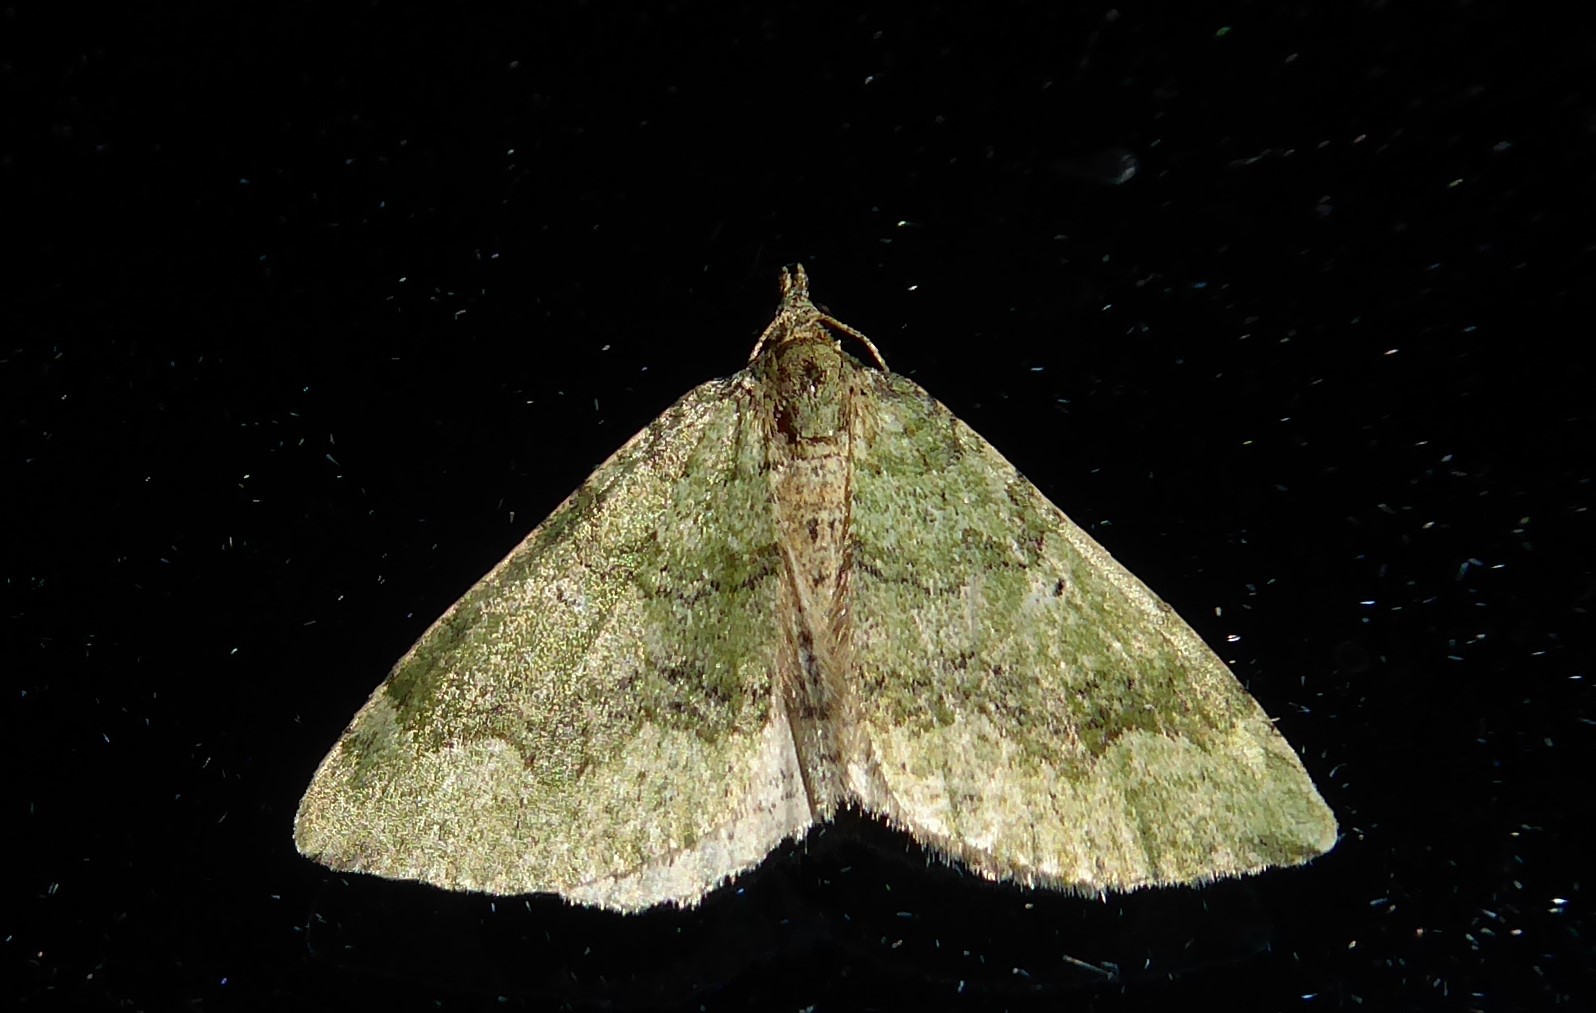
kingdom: Animalia
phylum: Arthropoda
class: Insecta
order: Lepidoptera
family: Geometridae
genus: Epyaxa
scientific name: Epyaxa rosearia
